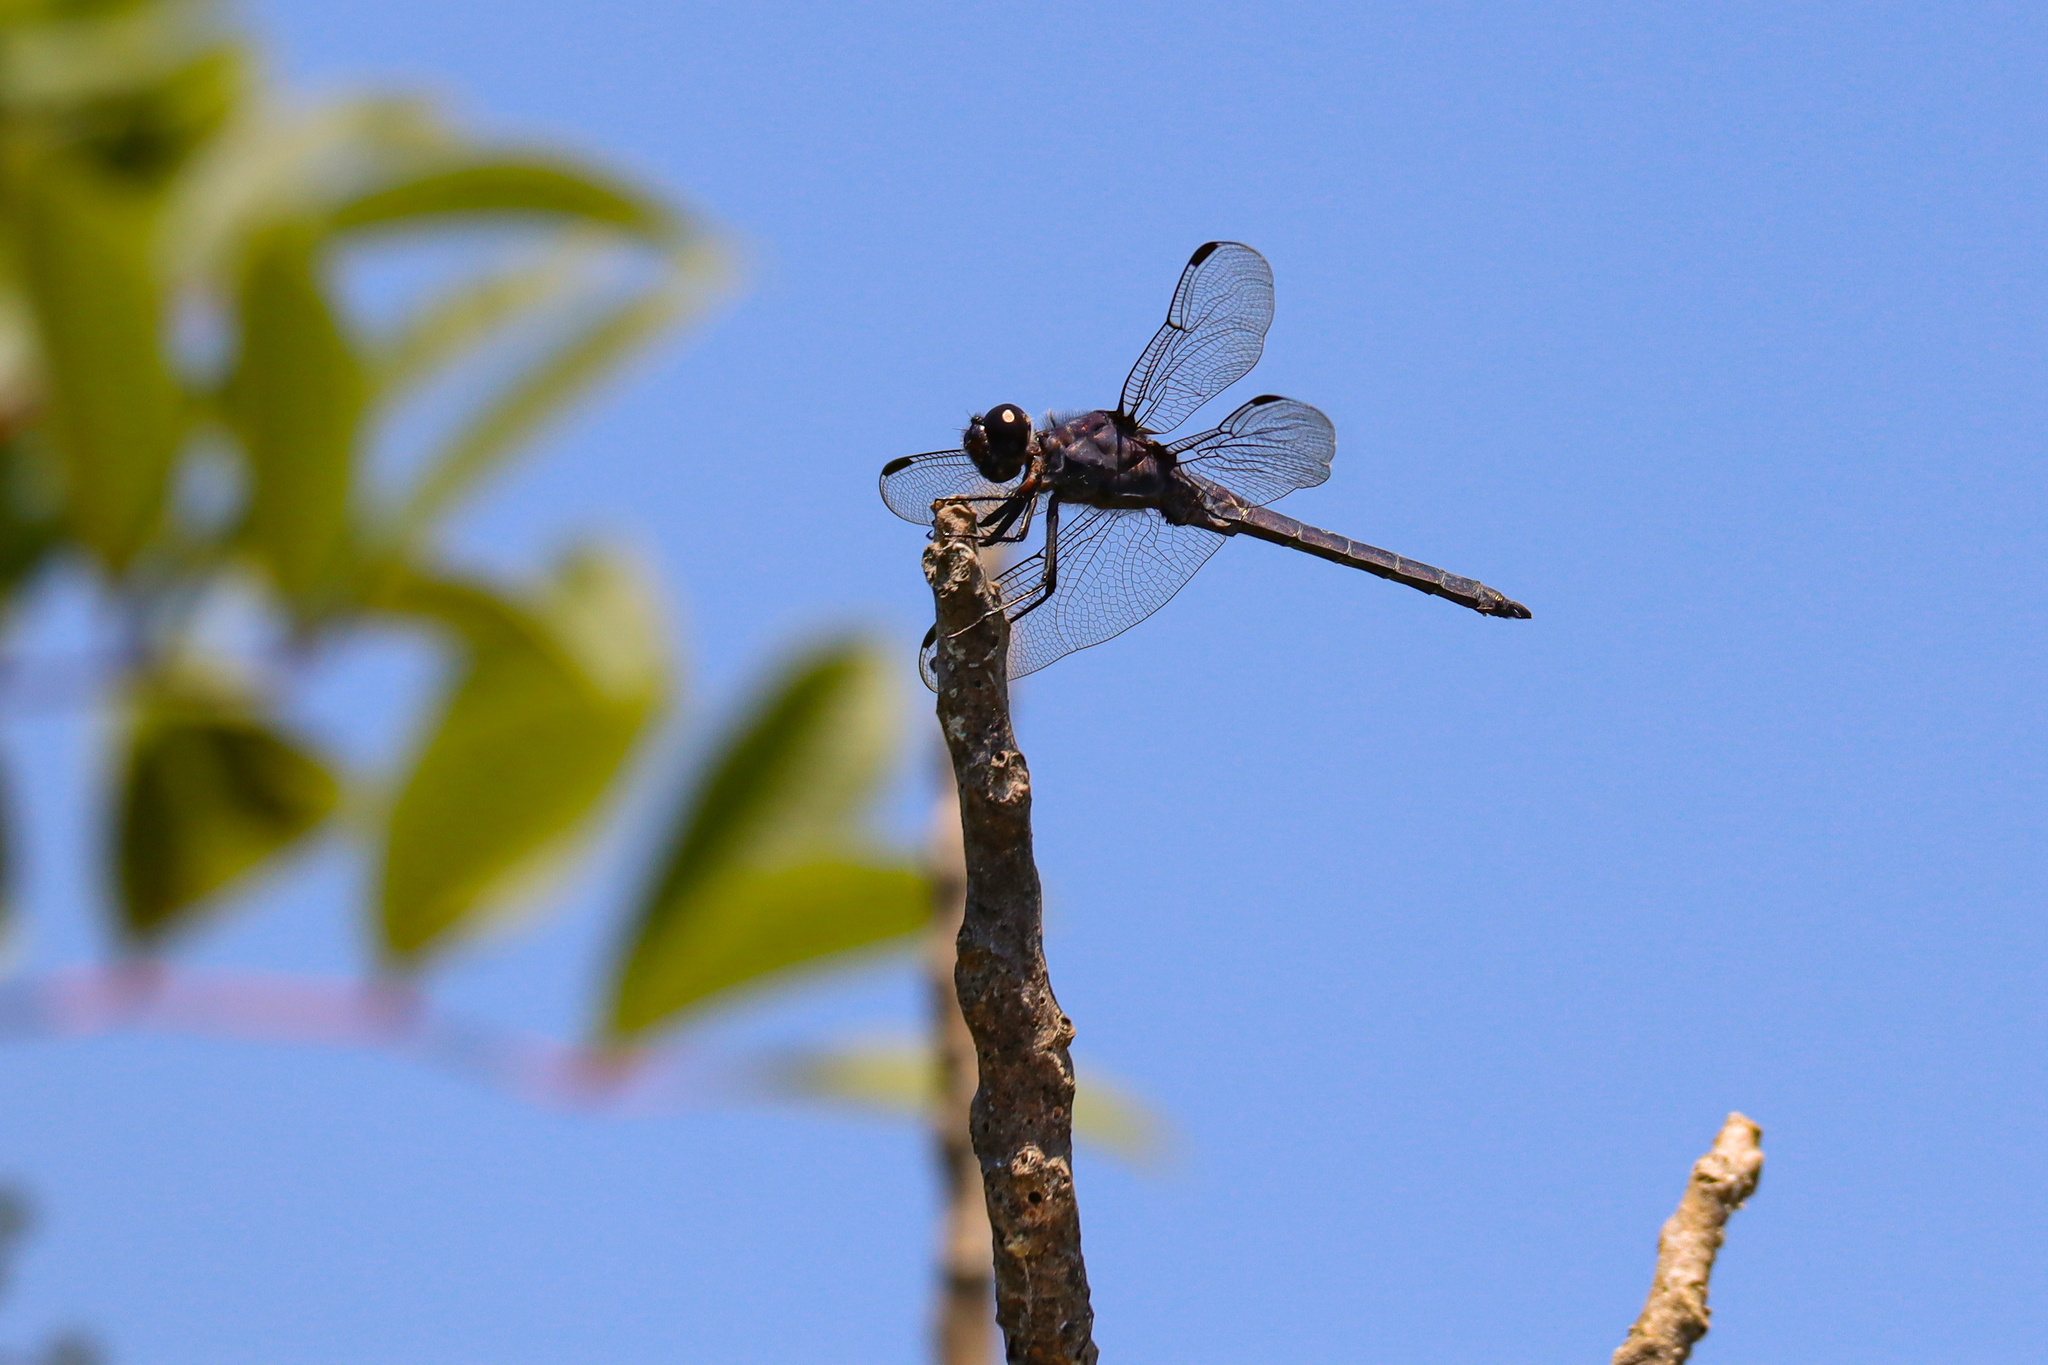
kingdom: Animalia
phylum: Arthropoda
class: Insecta
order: Odonata
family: Libellulidae
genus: Libellula
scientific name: Libellula incesta
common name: Slaty skimmer
